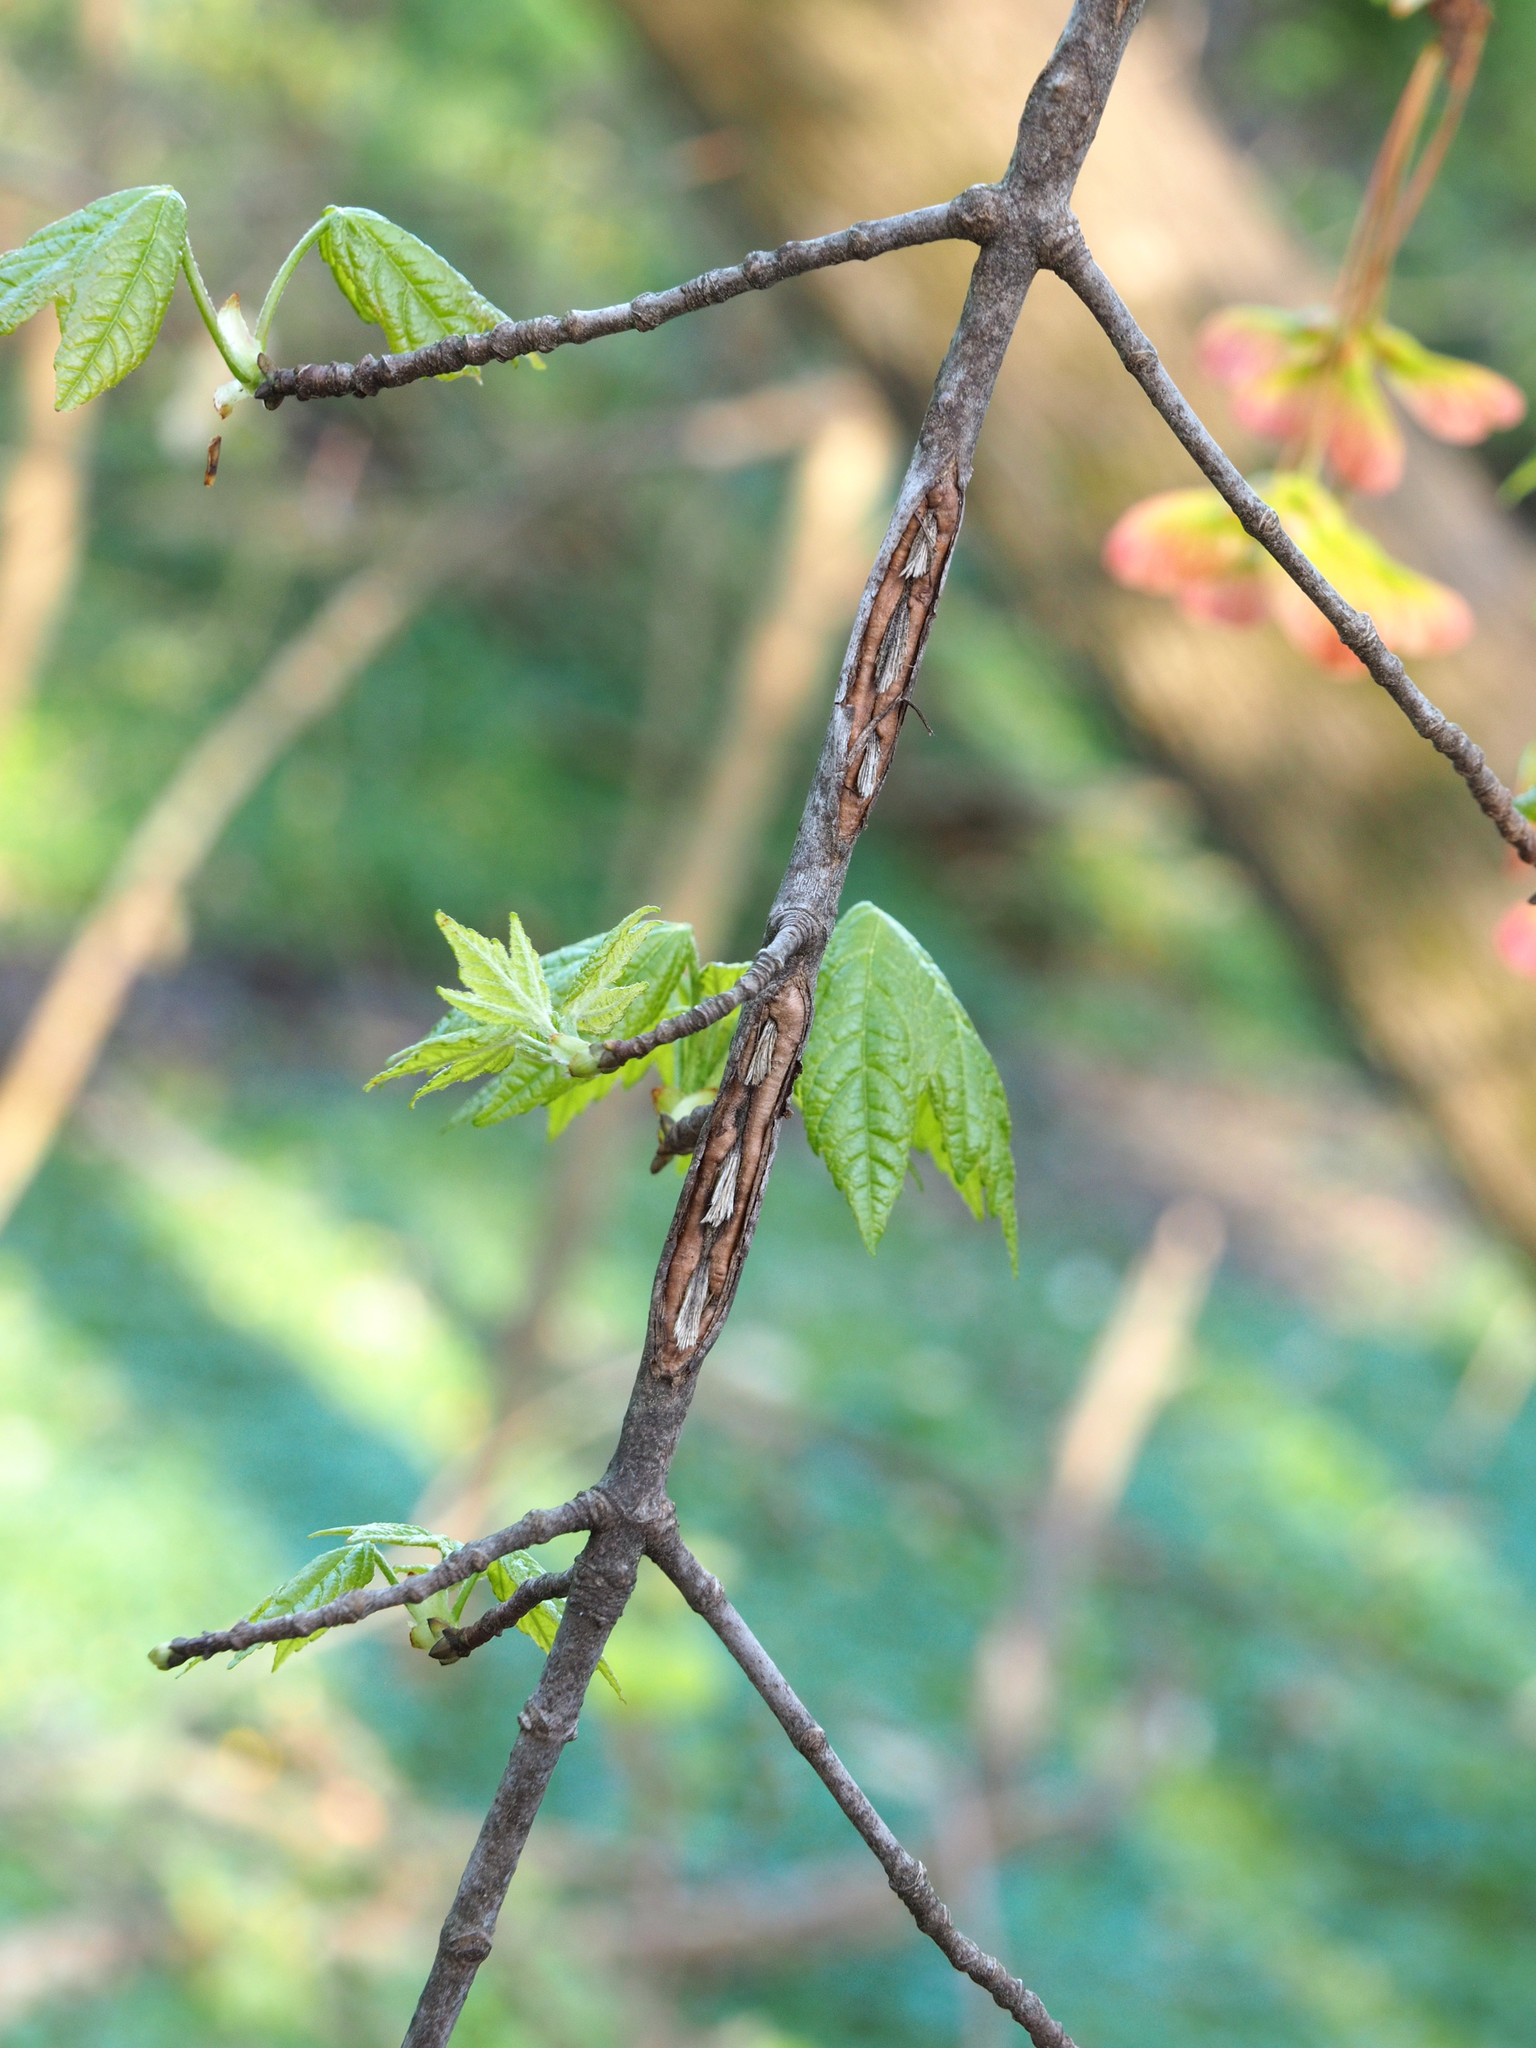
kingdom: Animalia
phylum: Arthropoda
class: Insecta
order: Hemiptera
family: Cicadidae
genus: Magicicada
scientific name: Magicicada
